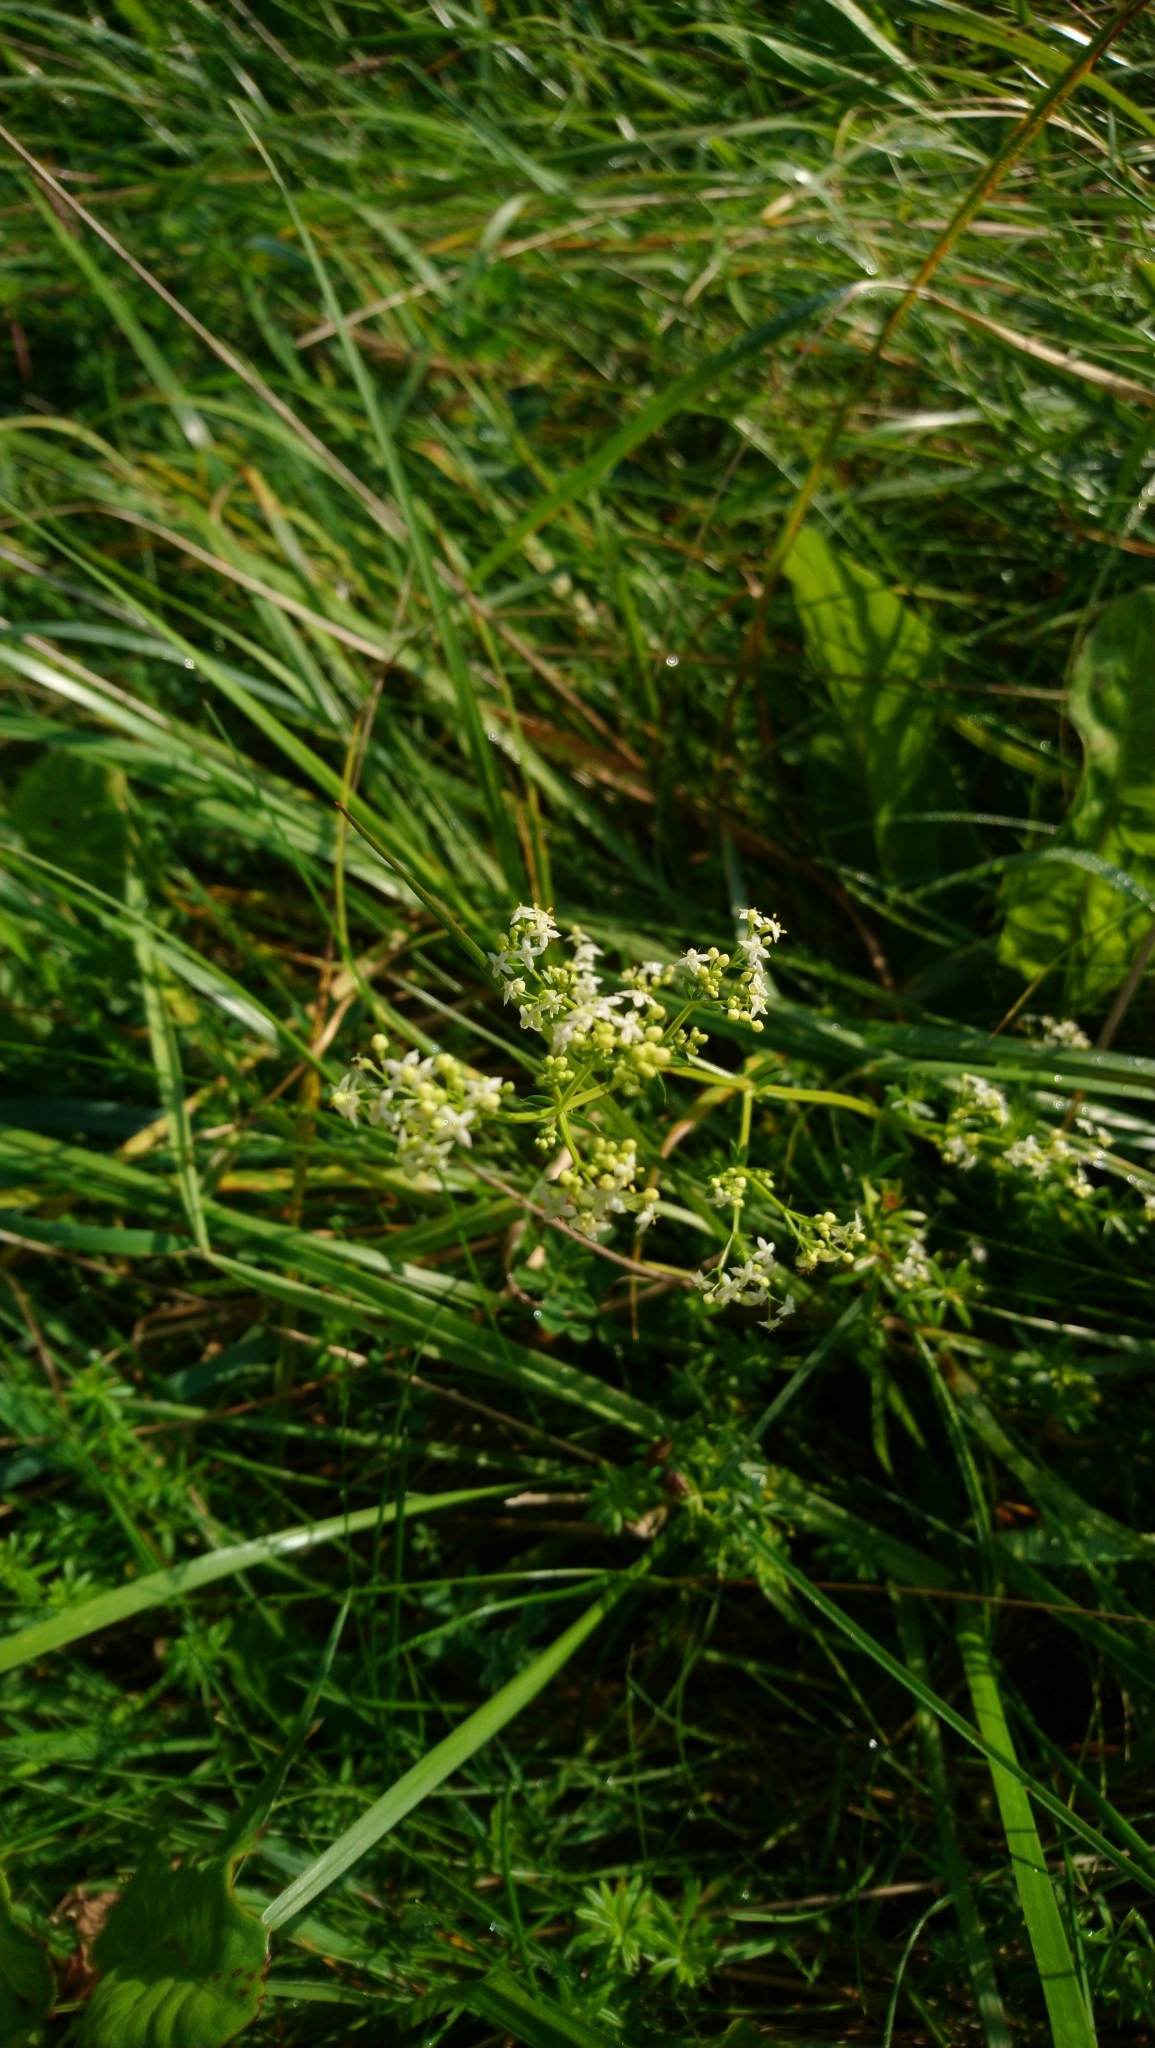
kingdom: Plantae
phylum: Tracheophyta
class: Magnoliopsida
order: Gentianales
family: Rubiaceae
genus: Galium
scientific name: Galium album
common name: White bedstraw
